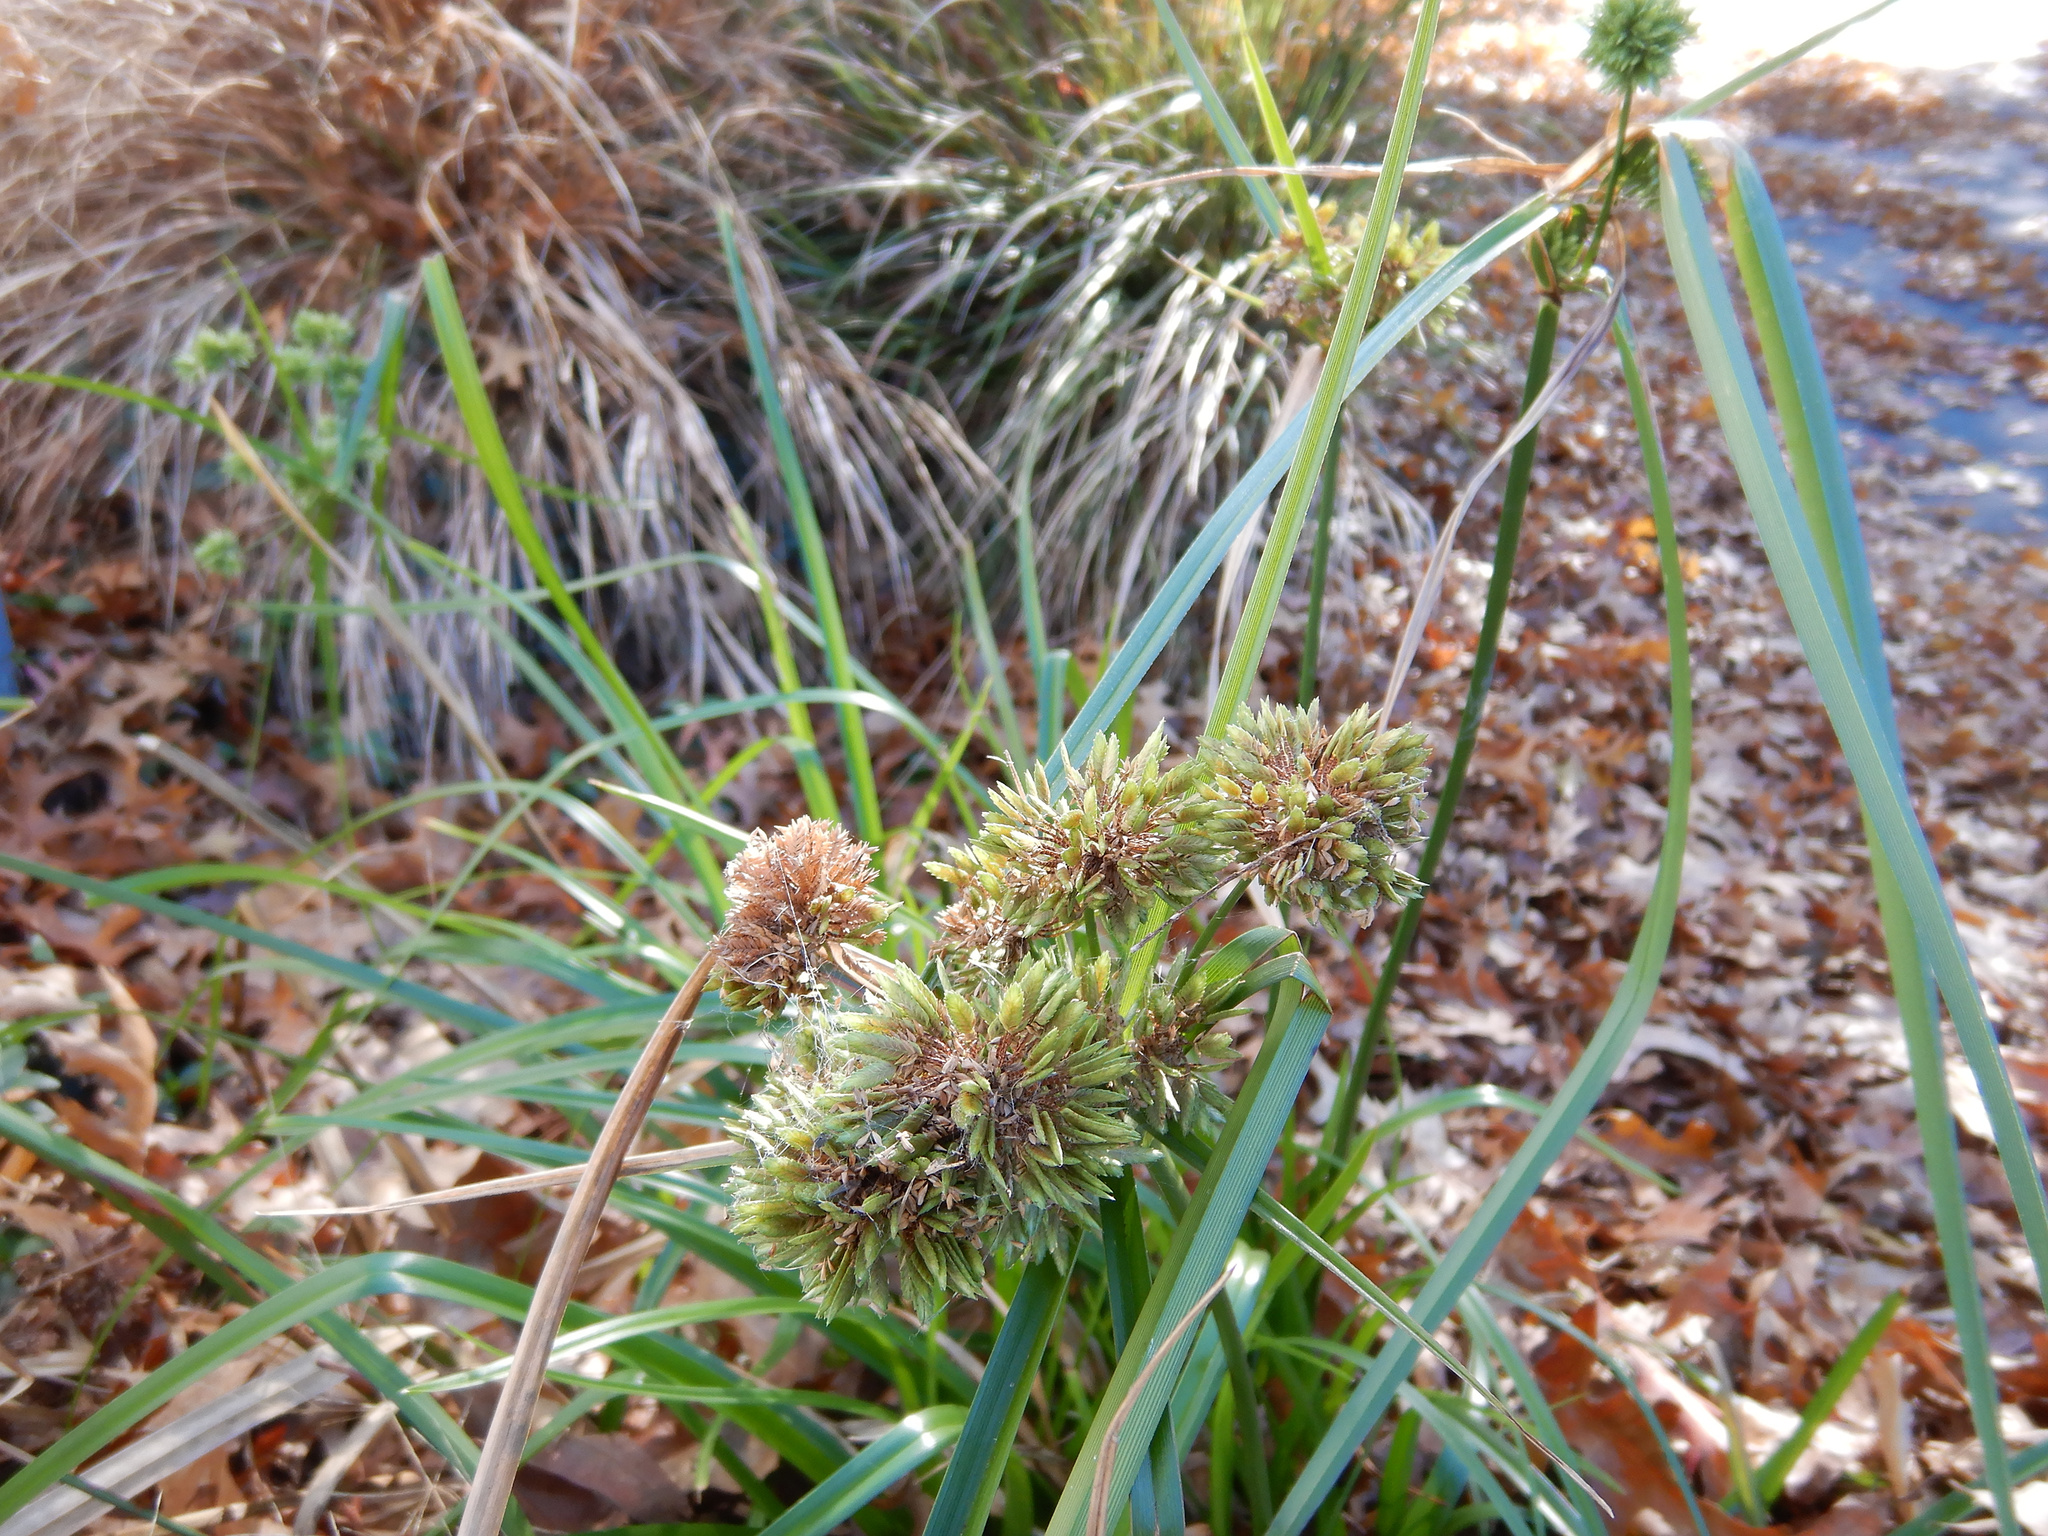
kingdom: Plantae
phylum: Tracheophyta
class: Liliopsida
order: Poales
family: Cyperaceae
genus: Cyperus
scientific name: Cyperus eragrostis
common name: Tall flatsedge
